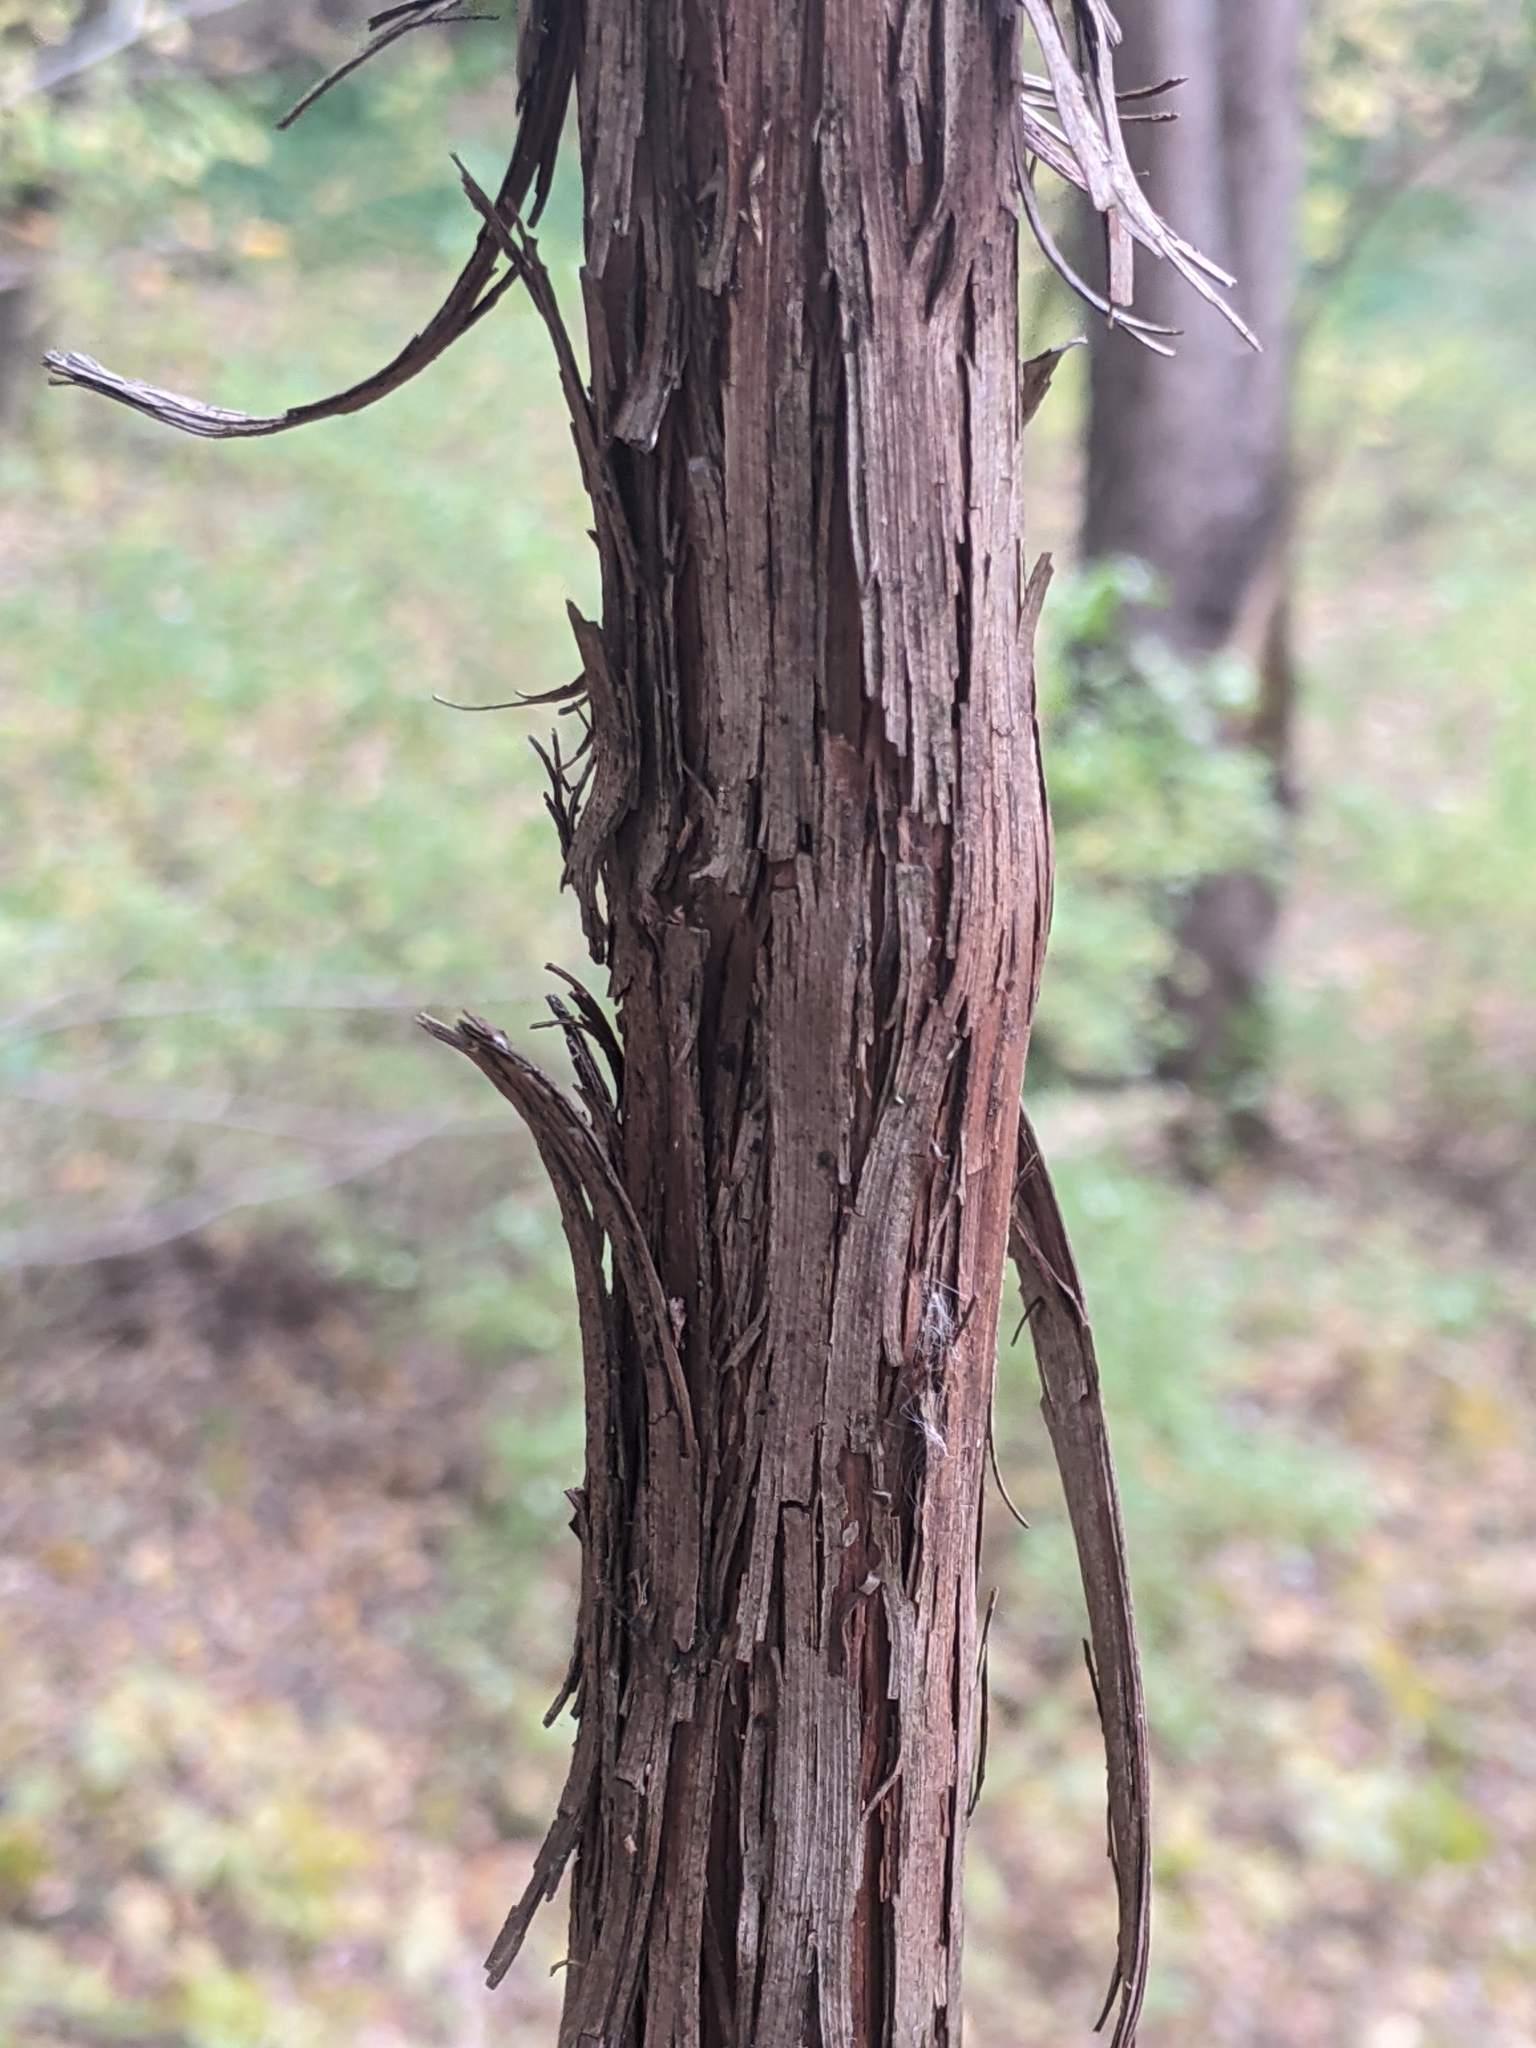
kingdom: Plantae
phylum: Tracheophyta
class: Magnoliopsida
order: Vitales
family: Vitaceae
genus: Vitis
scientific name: Vitis riparia
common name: Frost grape
